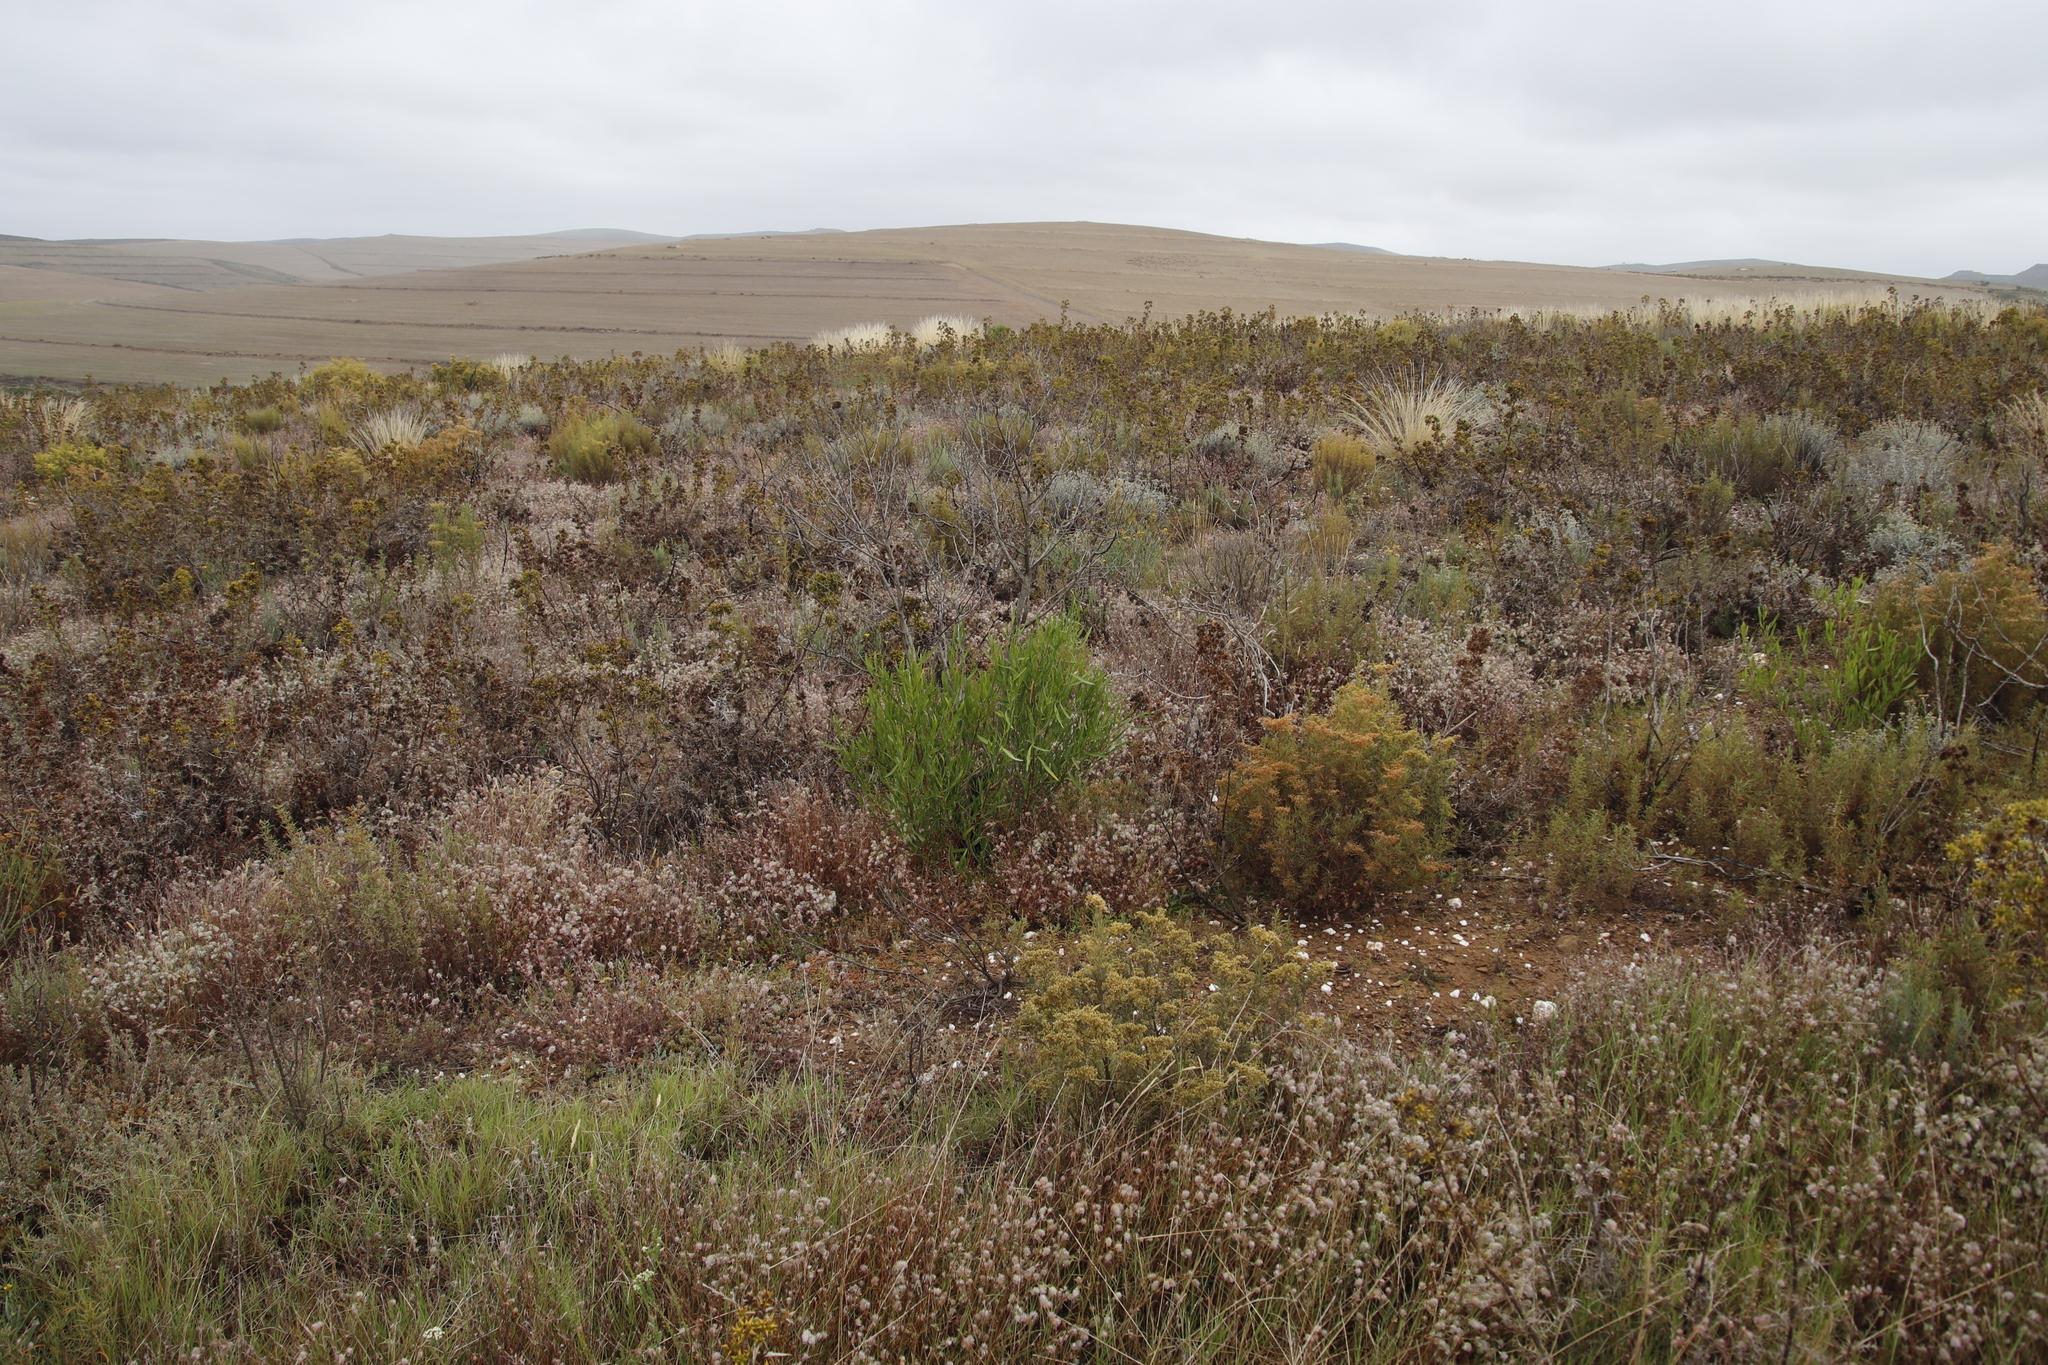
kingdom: Plantae
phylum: Tracheophyta
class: Magnoliopsida
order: Sapindales
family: Sapindaceae
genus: Dodonaea
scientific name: Dodonaea viscosa
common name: Hopbush
